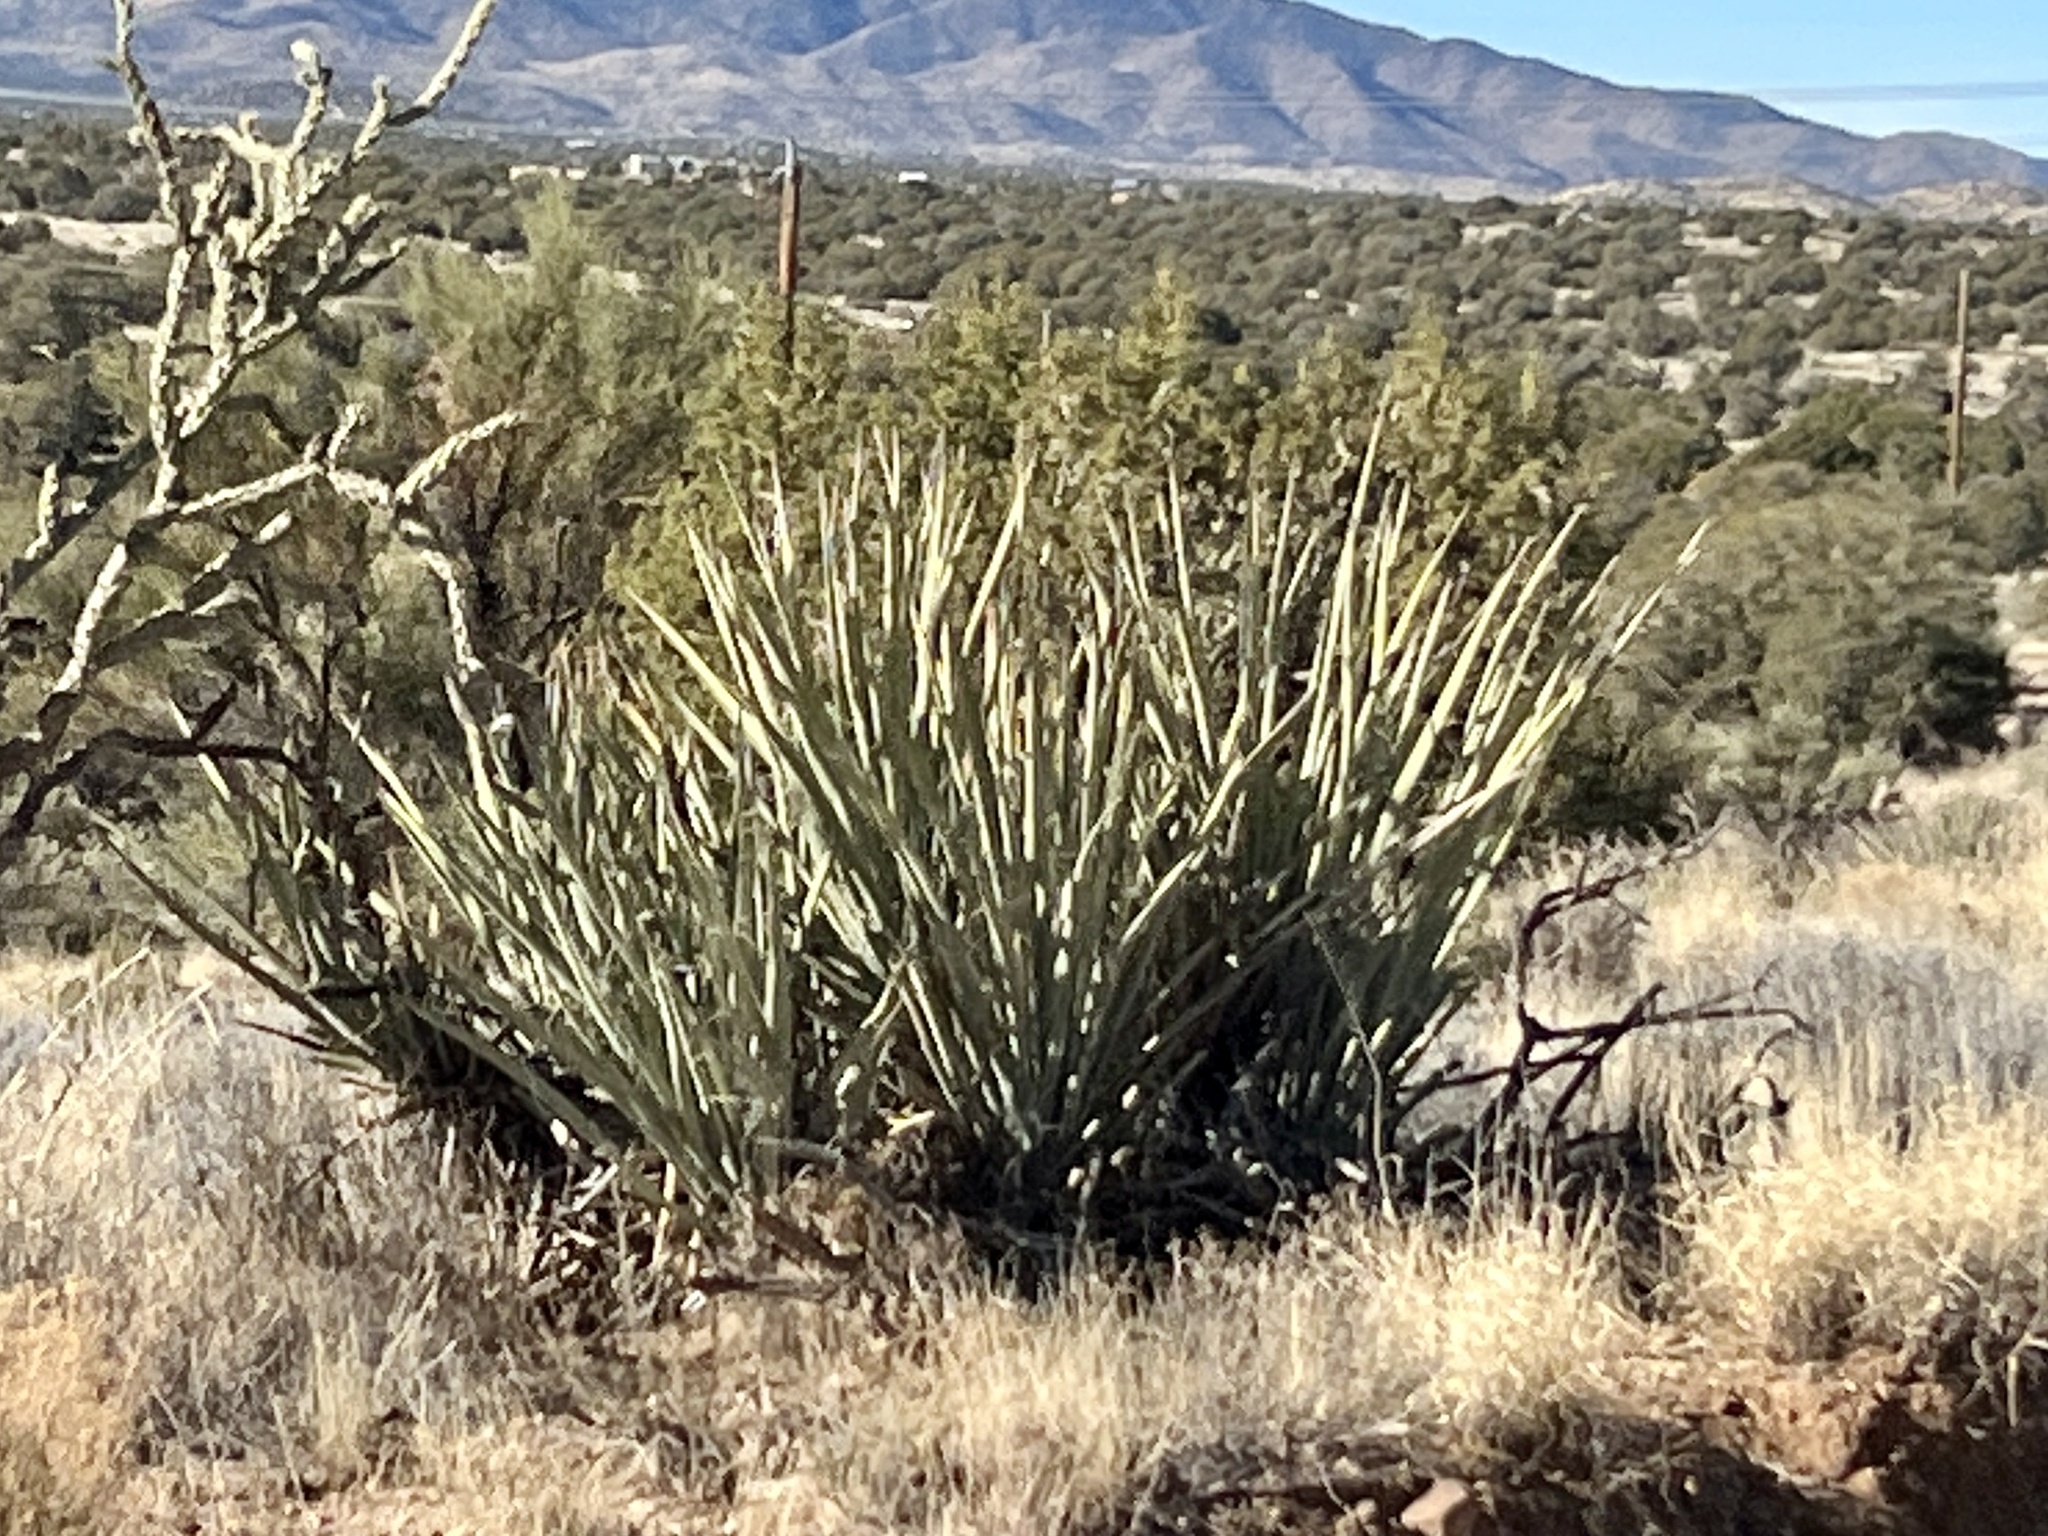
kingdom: Plantae
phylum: Tracheophyta
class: Liliopsida
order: Asparagales
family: Asparagaceae
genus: Yucca
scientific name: Yucca baccata
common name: Banana yucca
